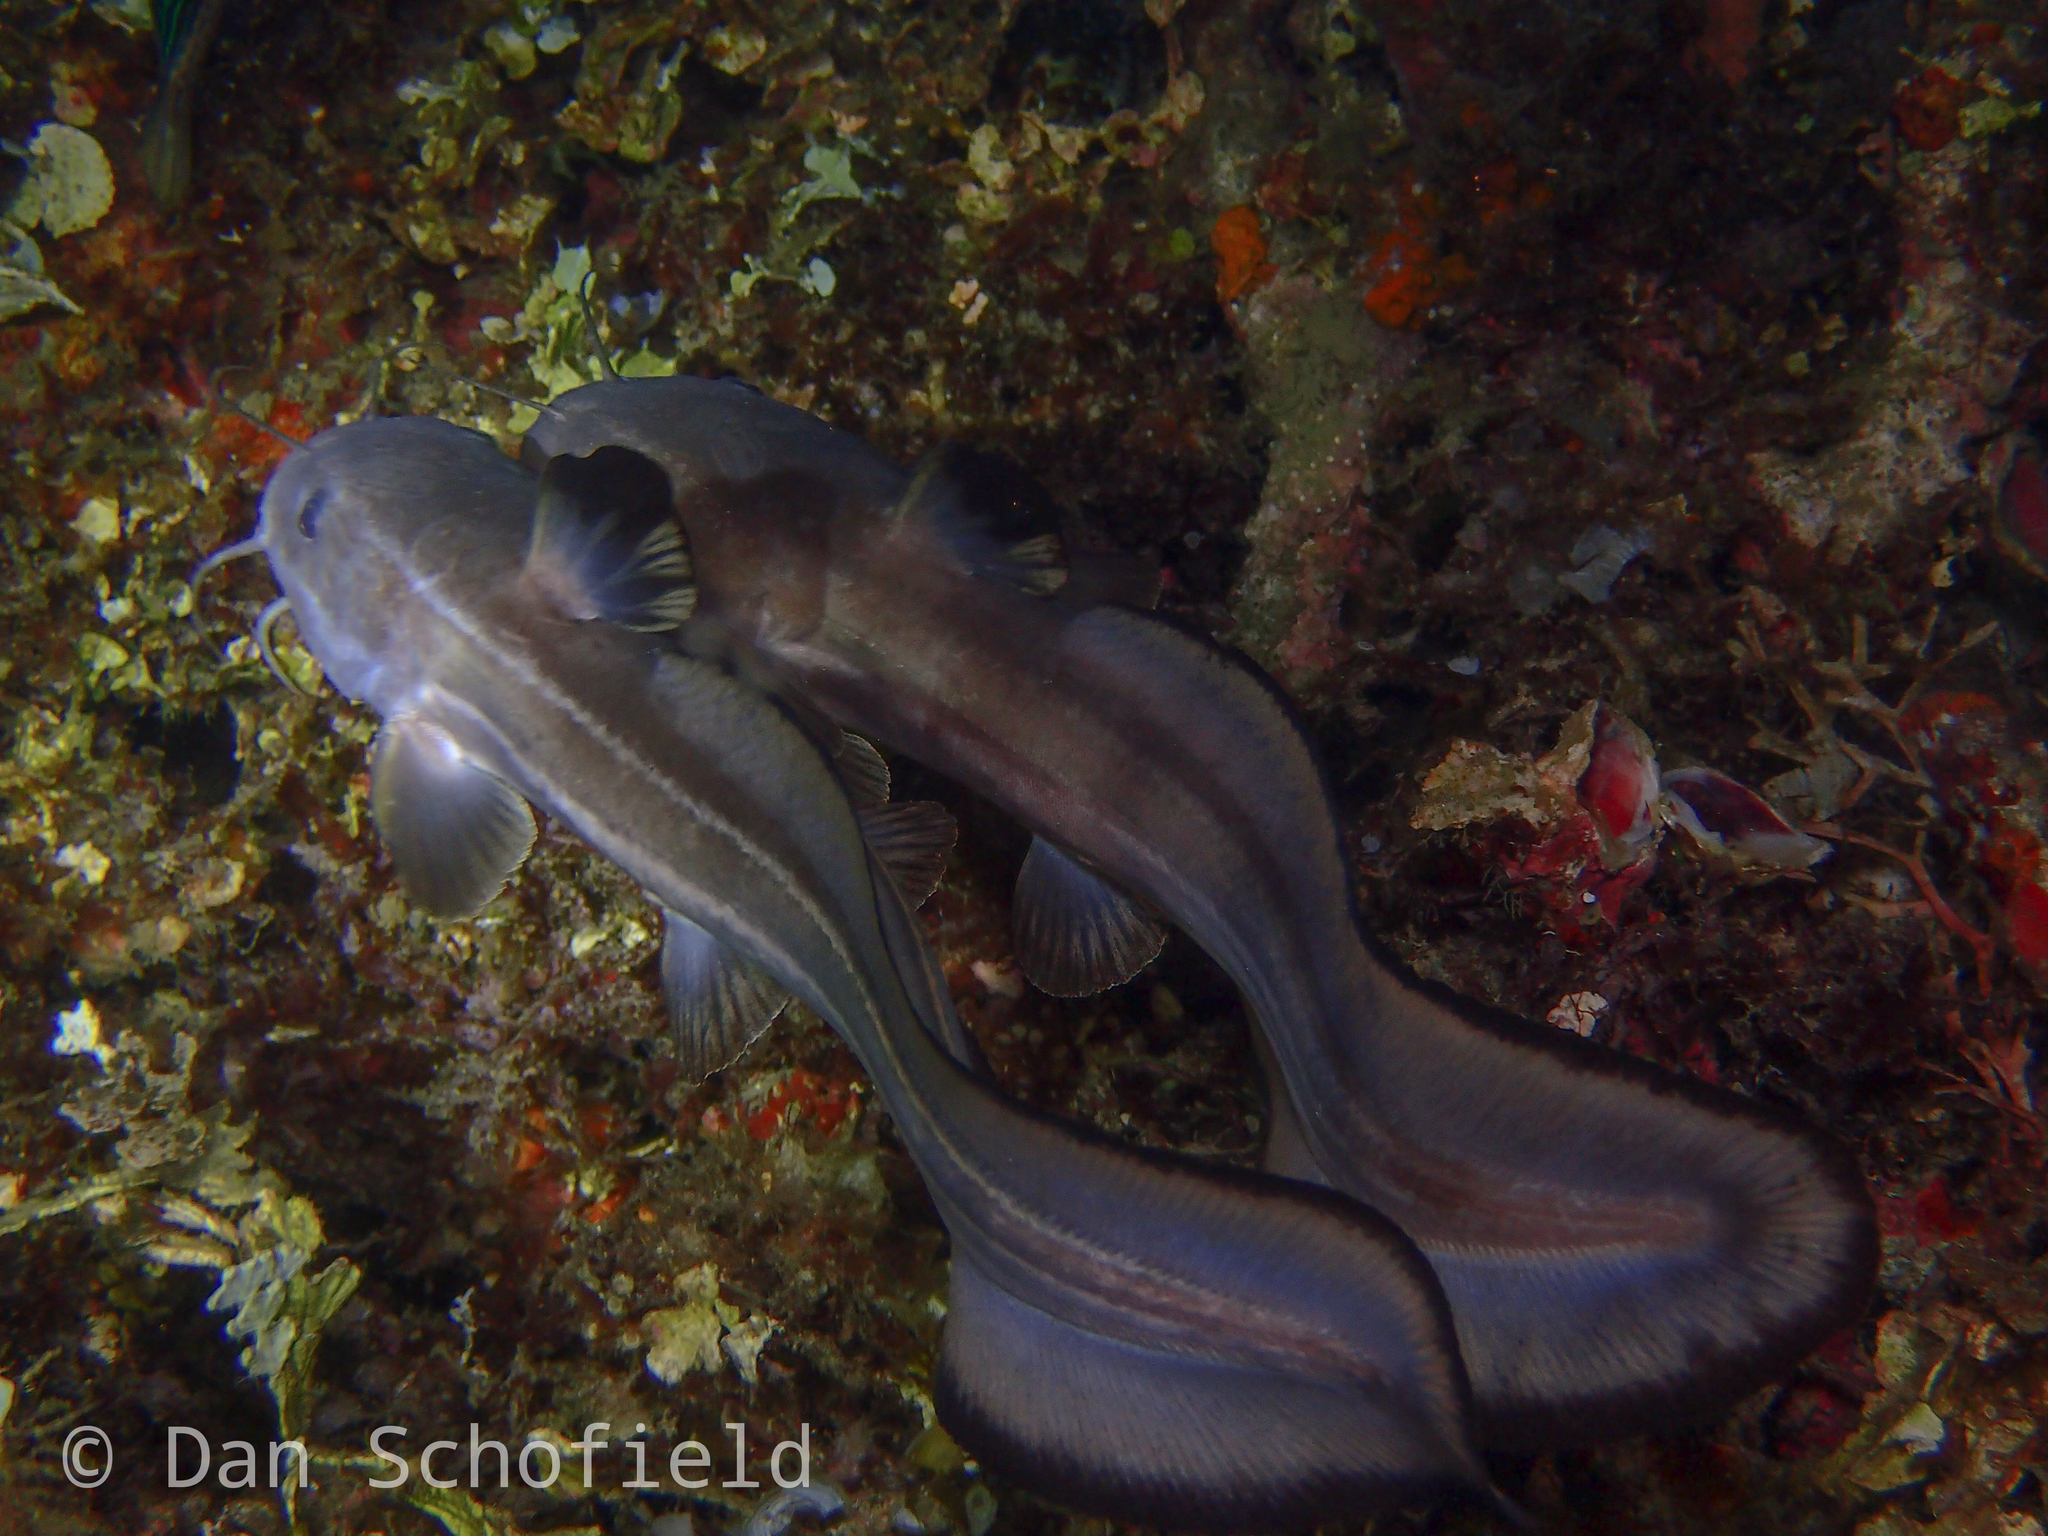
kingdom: Animalia
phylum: Chordata
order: Siluriformes
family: Plotosidae
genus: Plotosus
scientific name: Plotosus lineatus
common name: Striped eel catfish
